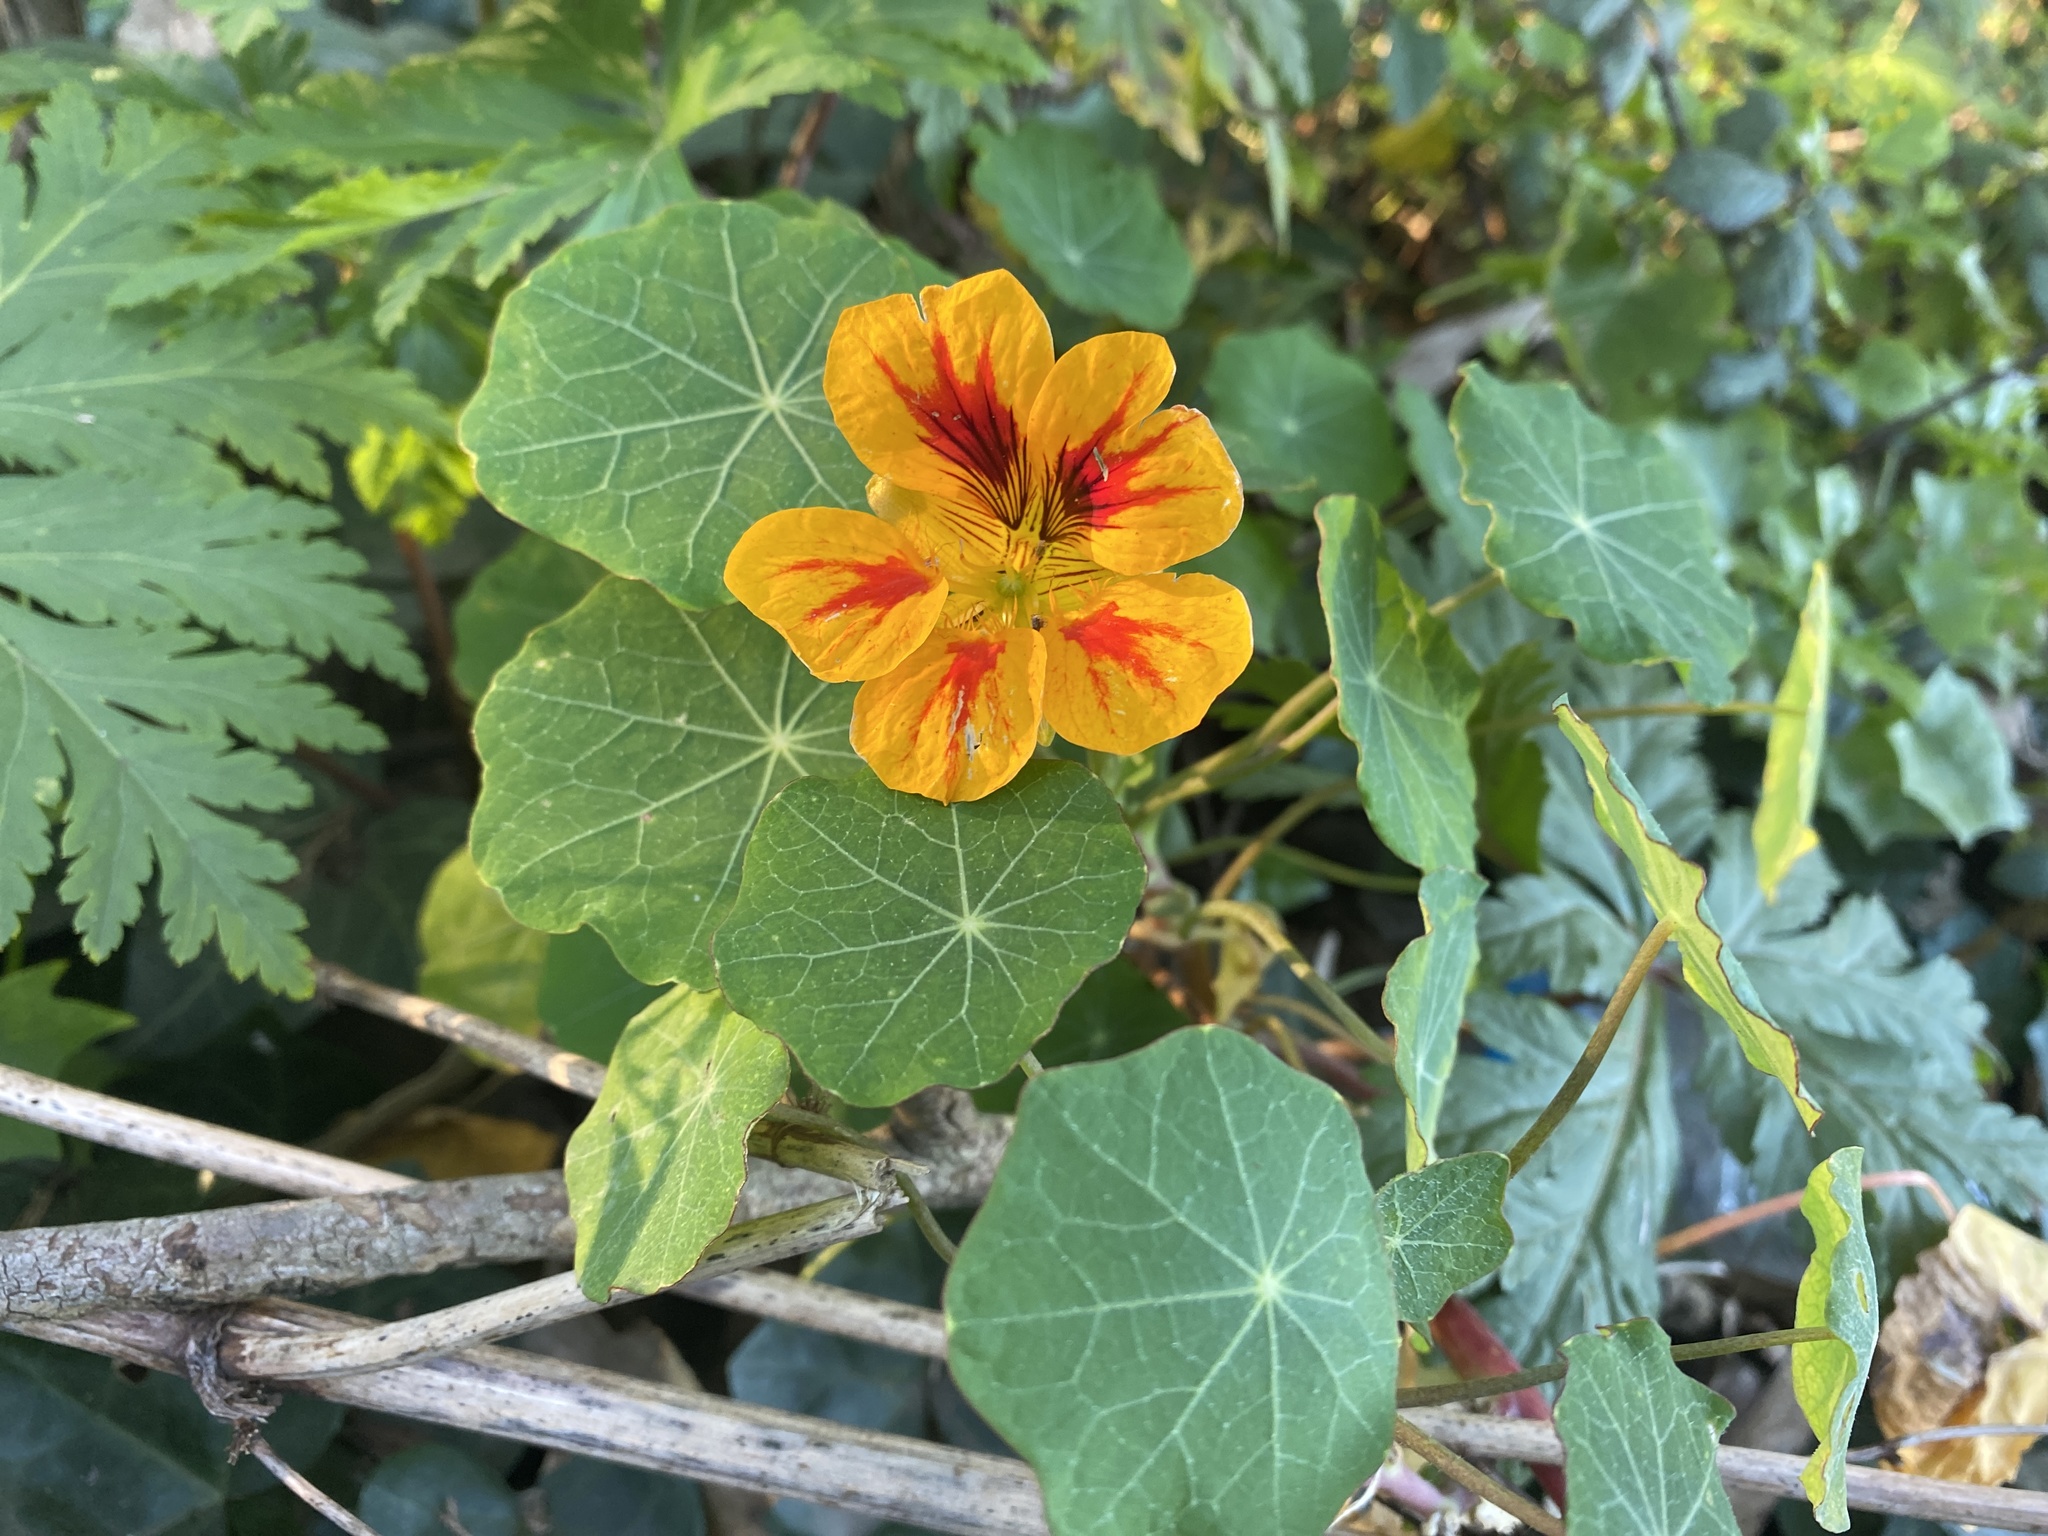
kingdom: Plantae
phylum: Tracheophyta
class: Magnoliopsida
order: Brassicales
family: Tropaeolaceae
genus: Tropaeolum
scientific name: Tropaeolum majus
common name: Nasturtium
